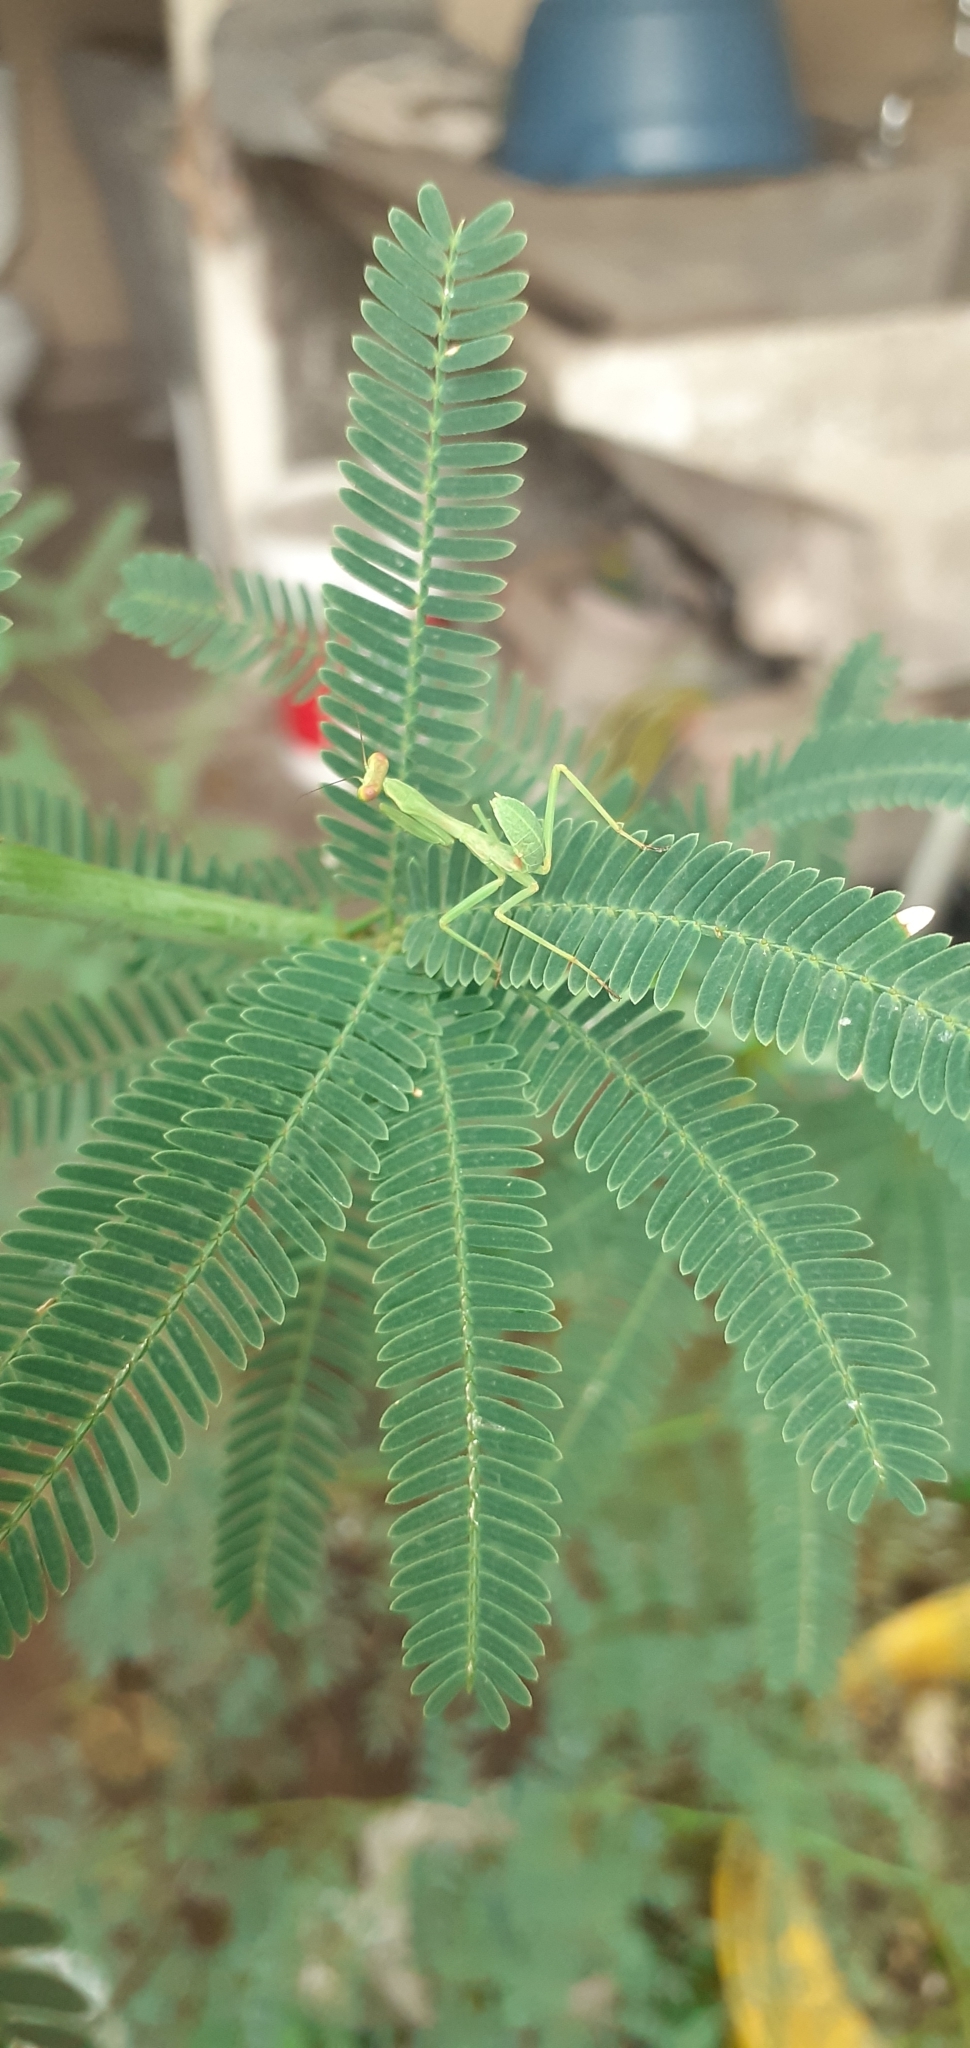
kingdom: Animalia
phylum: Arthropoda
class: Insecta
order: Mantodea
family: Mantidae
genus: Stagmatoptera
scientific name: Stagmatoptera hyaloptera
